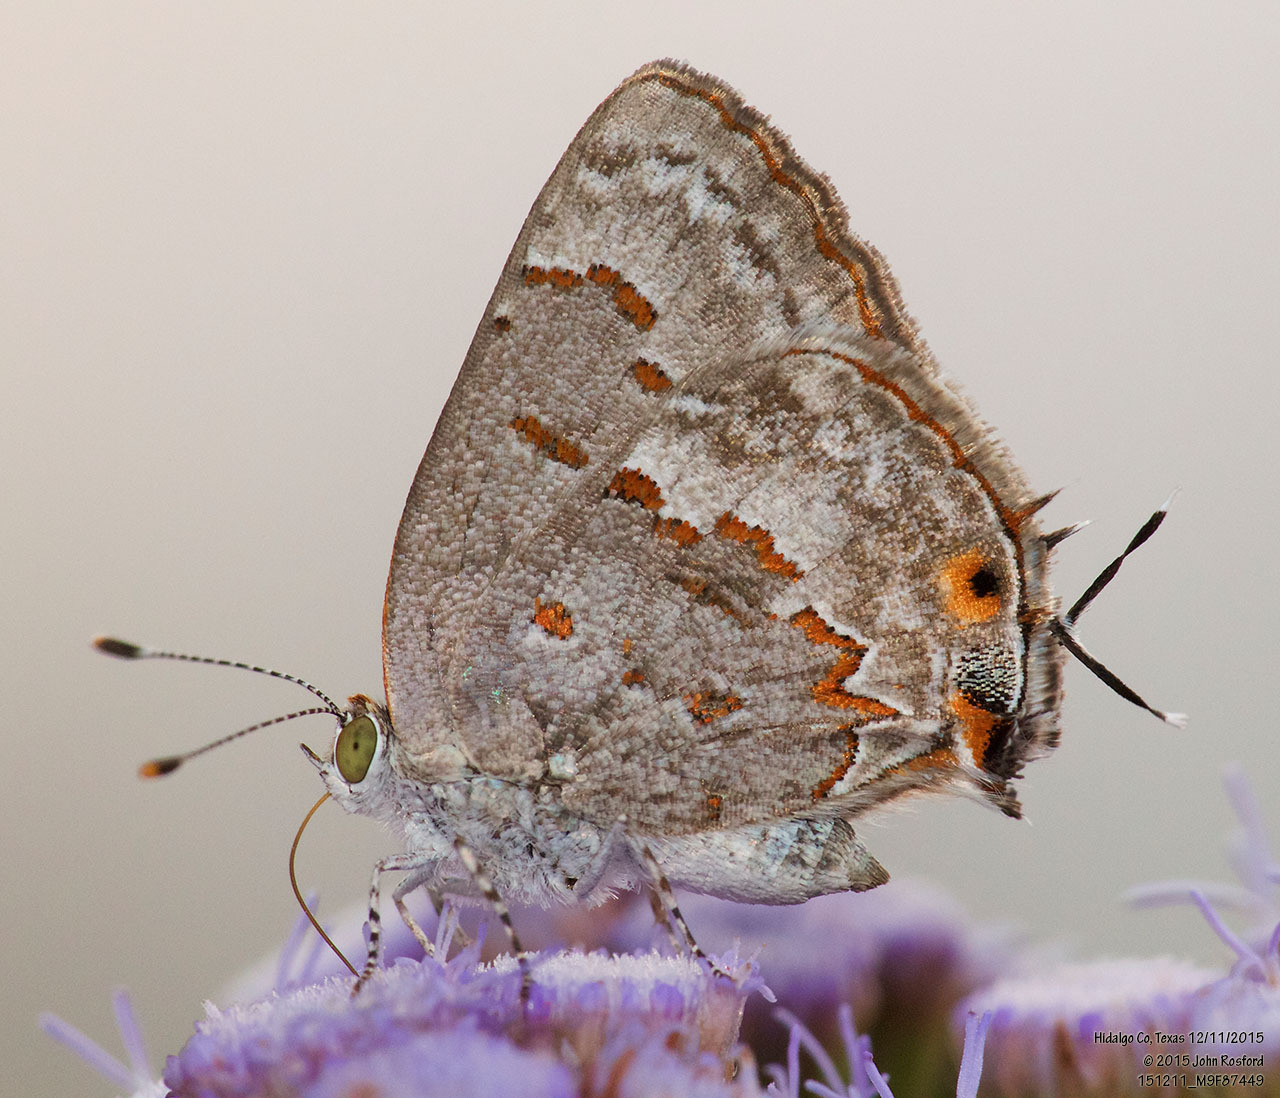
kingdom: Animalia
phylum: Arthropoda
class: Insecta
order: Lepidoptera
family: Lycaenidae
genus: Ministrymon
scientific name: Ministrymon clytie
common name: Clytie ministreak
